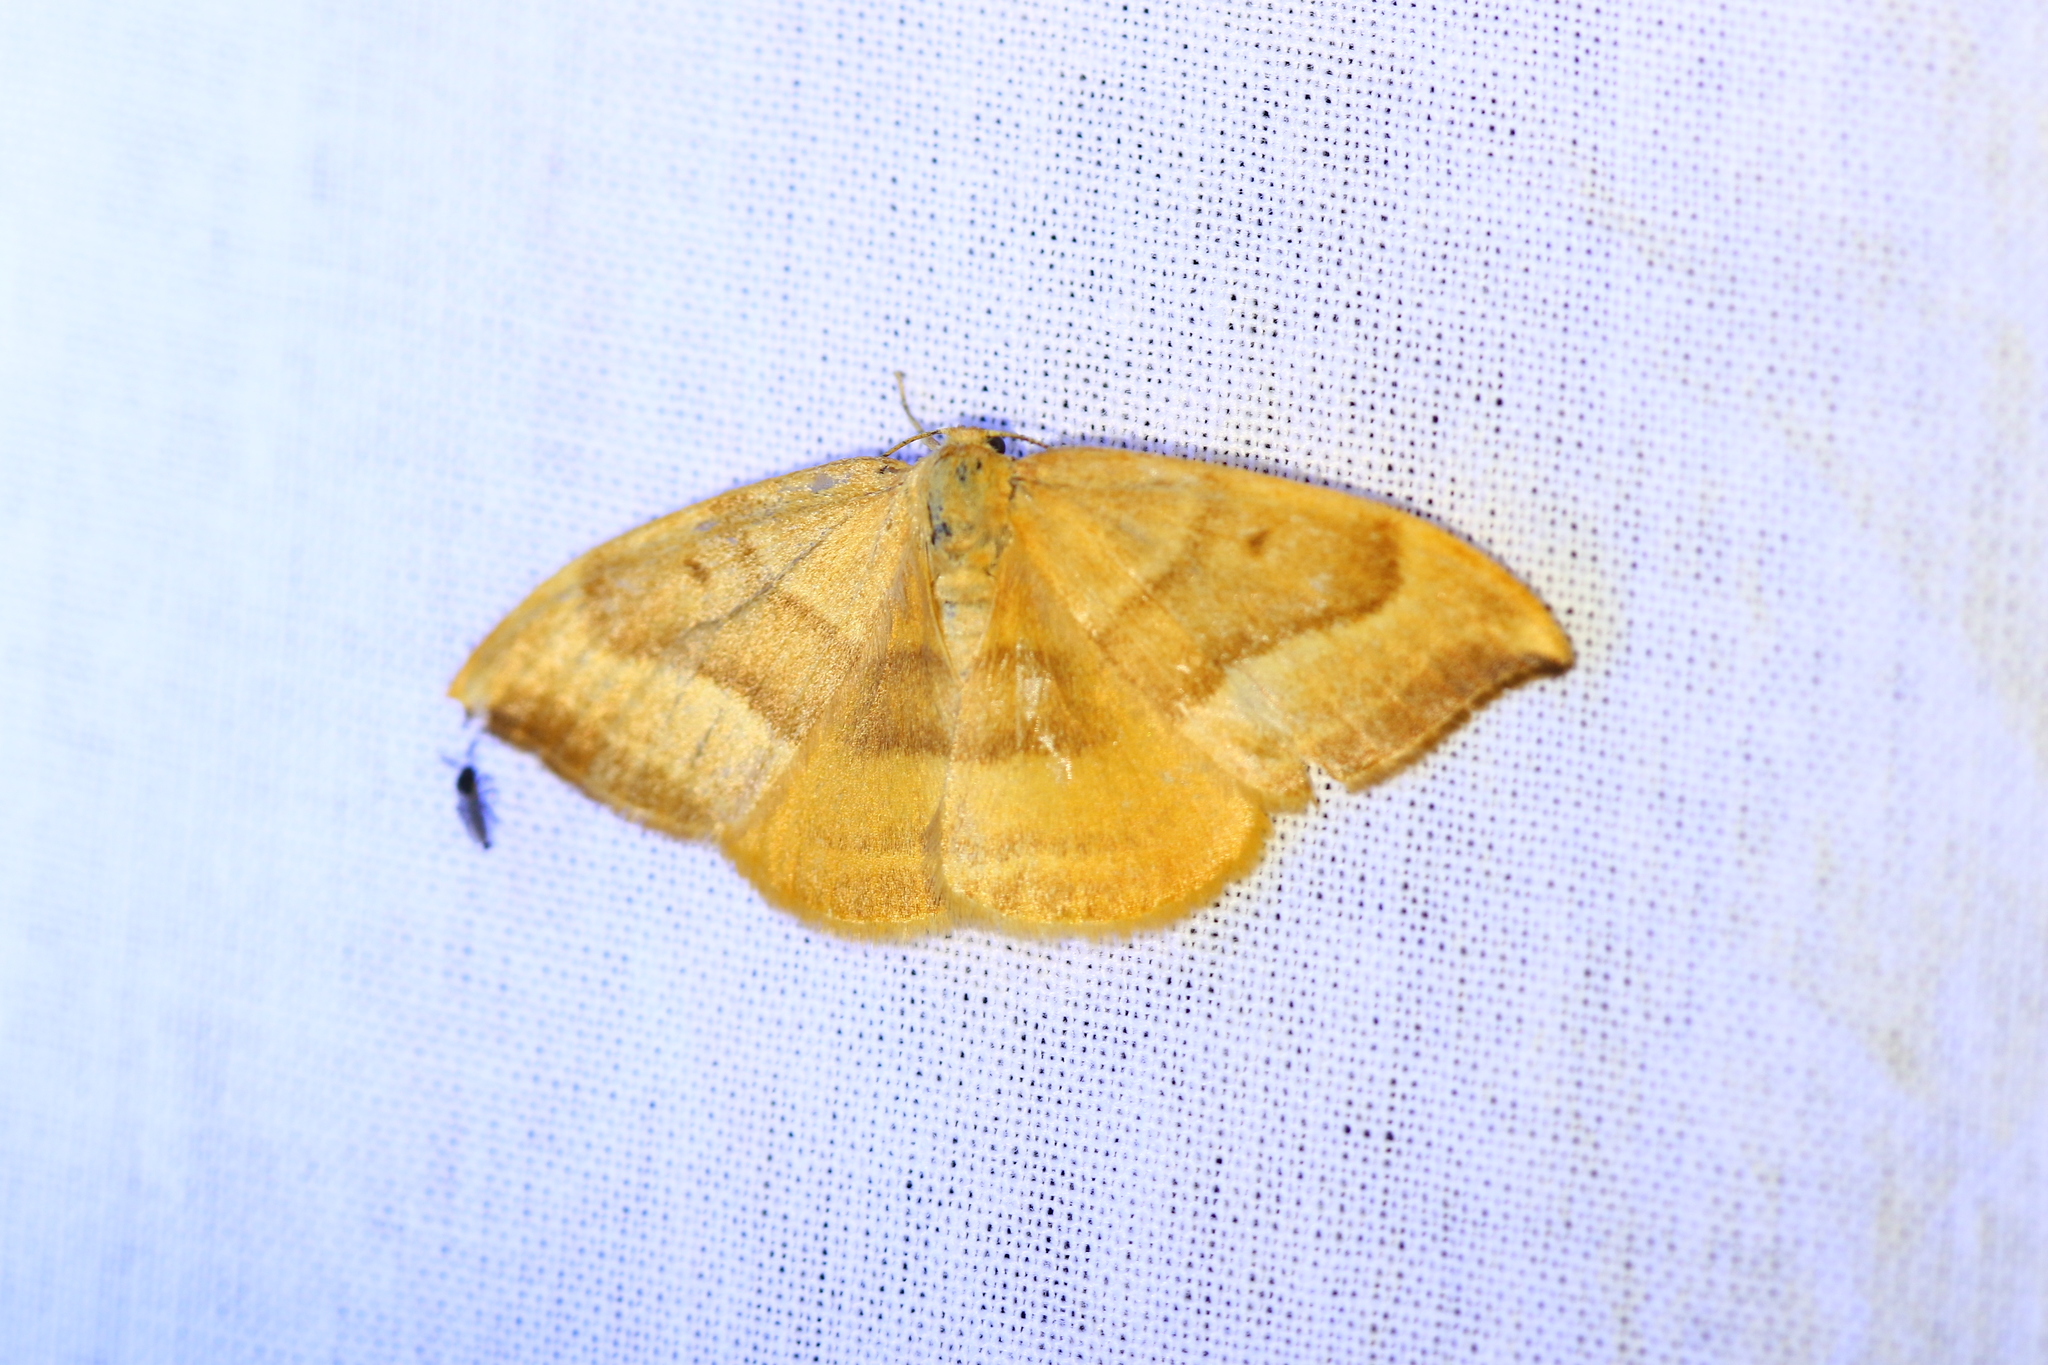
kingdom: Animalia
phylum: Arthropoda
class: Insecta
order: Lepidoptera
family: Drepanidae
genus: Watsonalla
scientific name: Watsonalla cultraria
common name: Barred hook-tip
